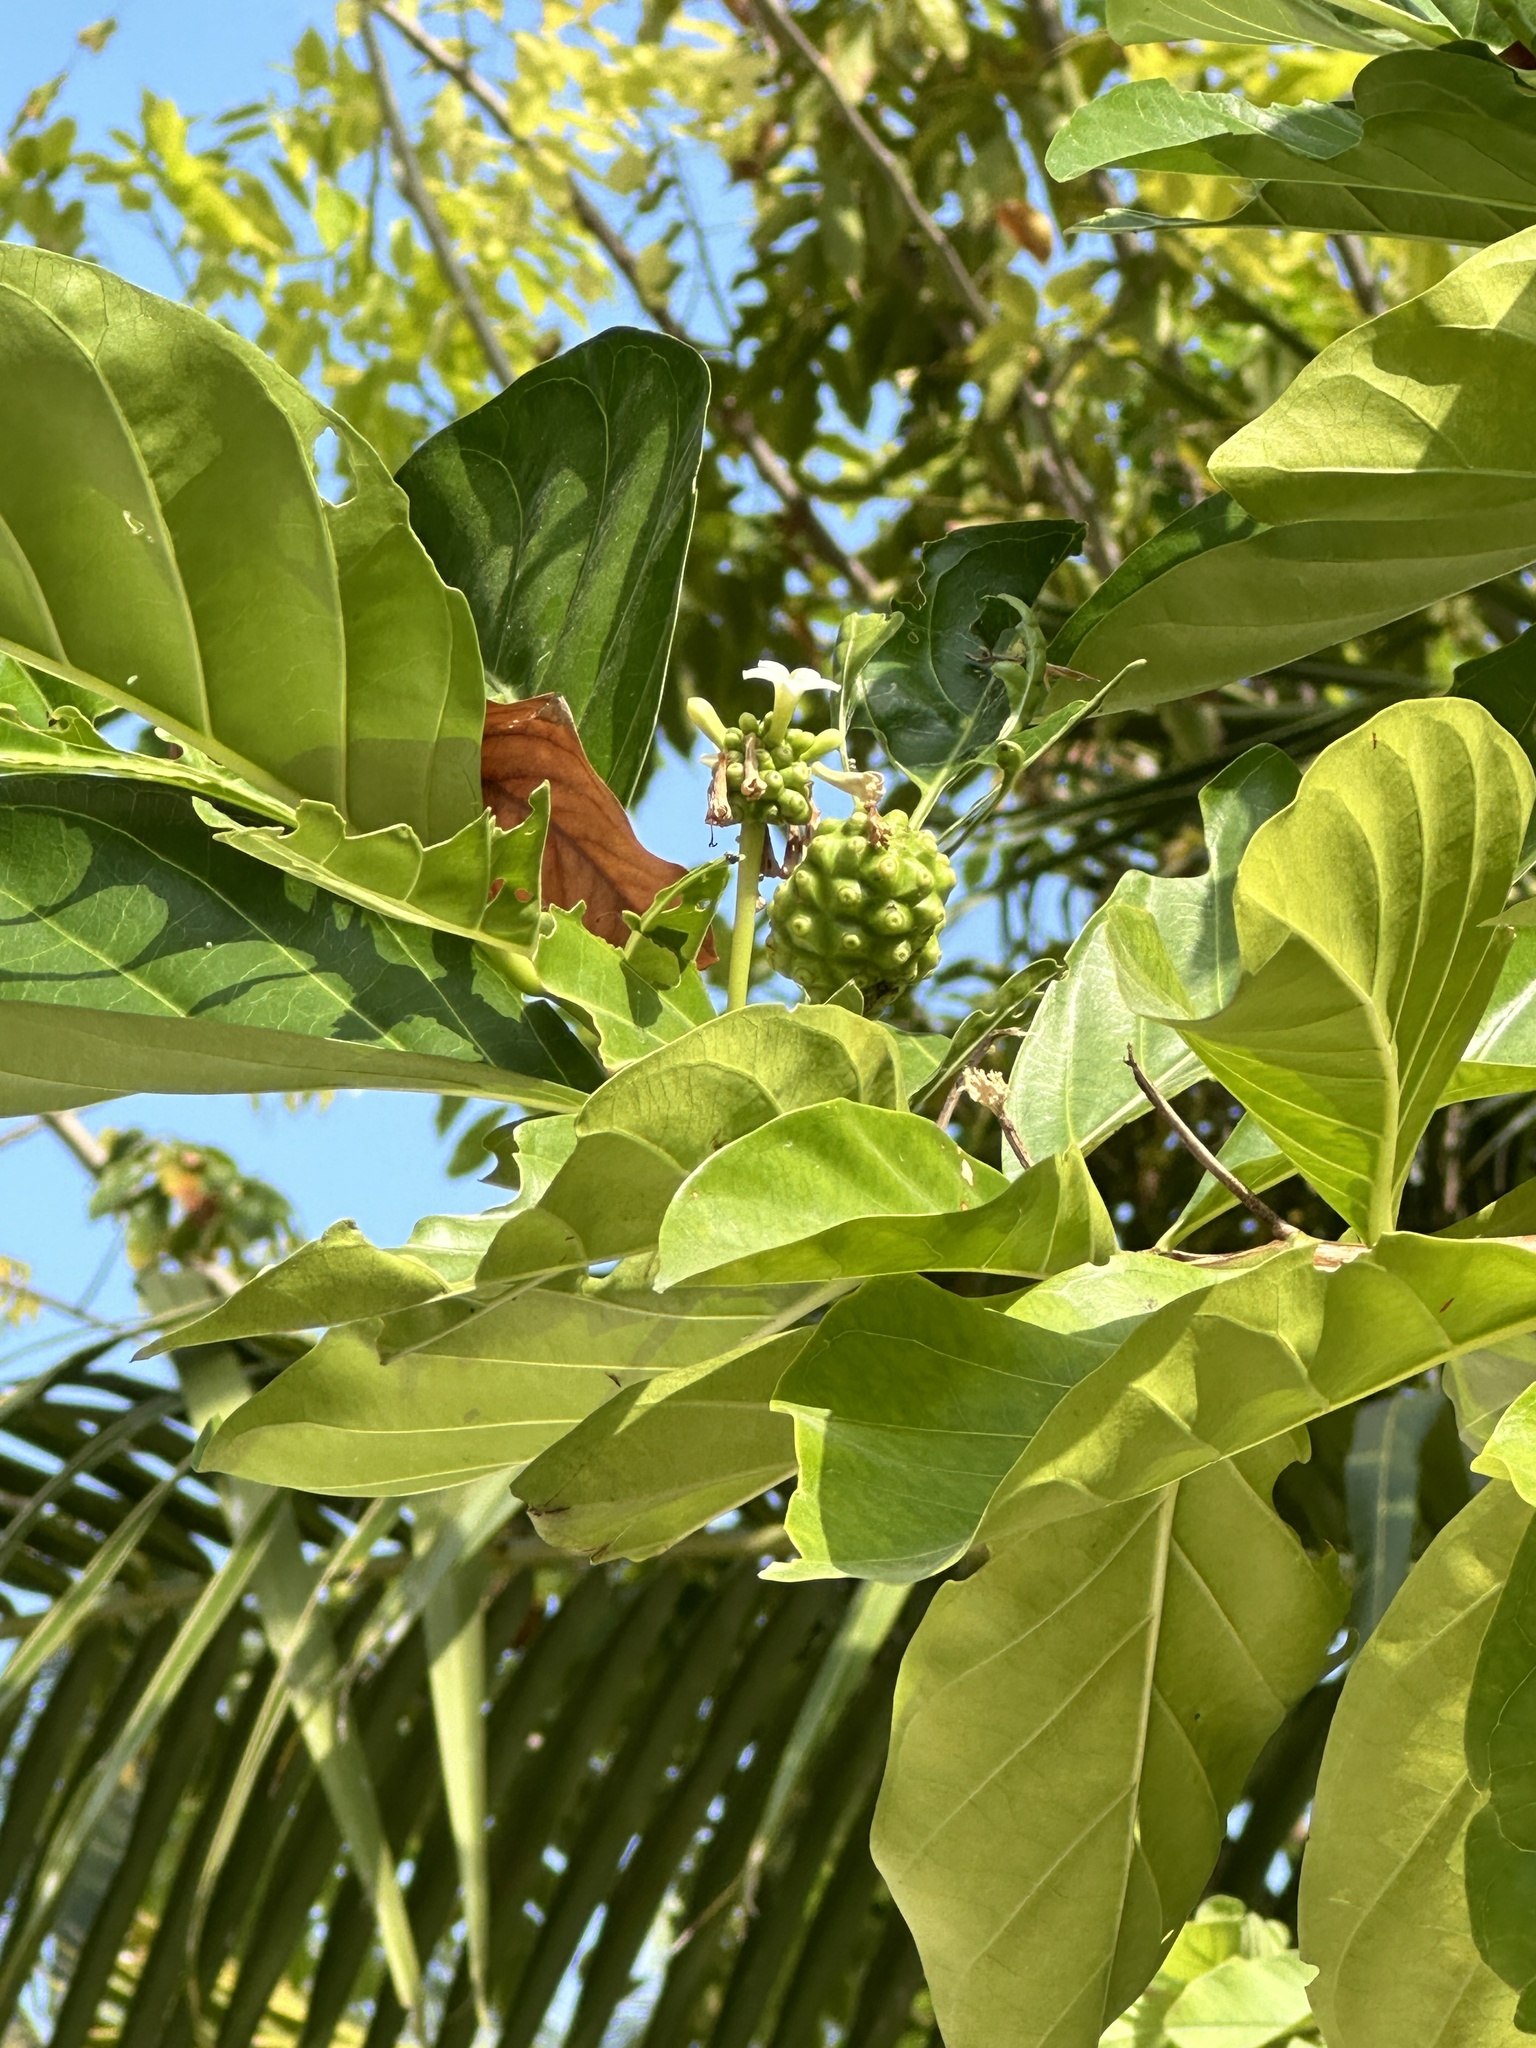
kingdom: Plantae
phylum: Tracheophyta
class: Magnoliopsida
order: Gentianales
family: Rubiaceae
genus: Morinda
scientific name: Morinda citrifolia
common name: Indian-mulberry
